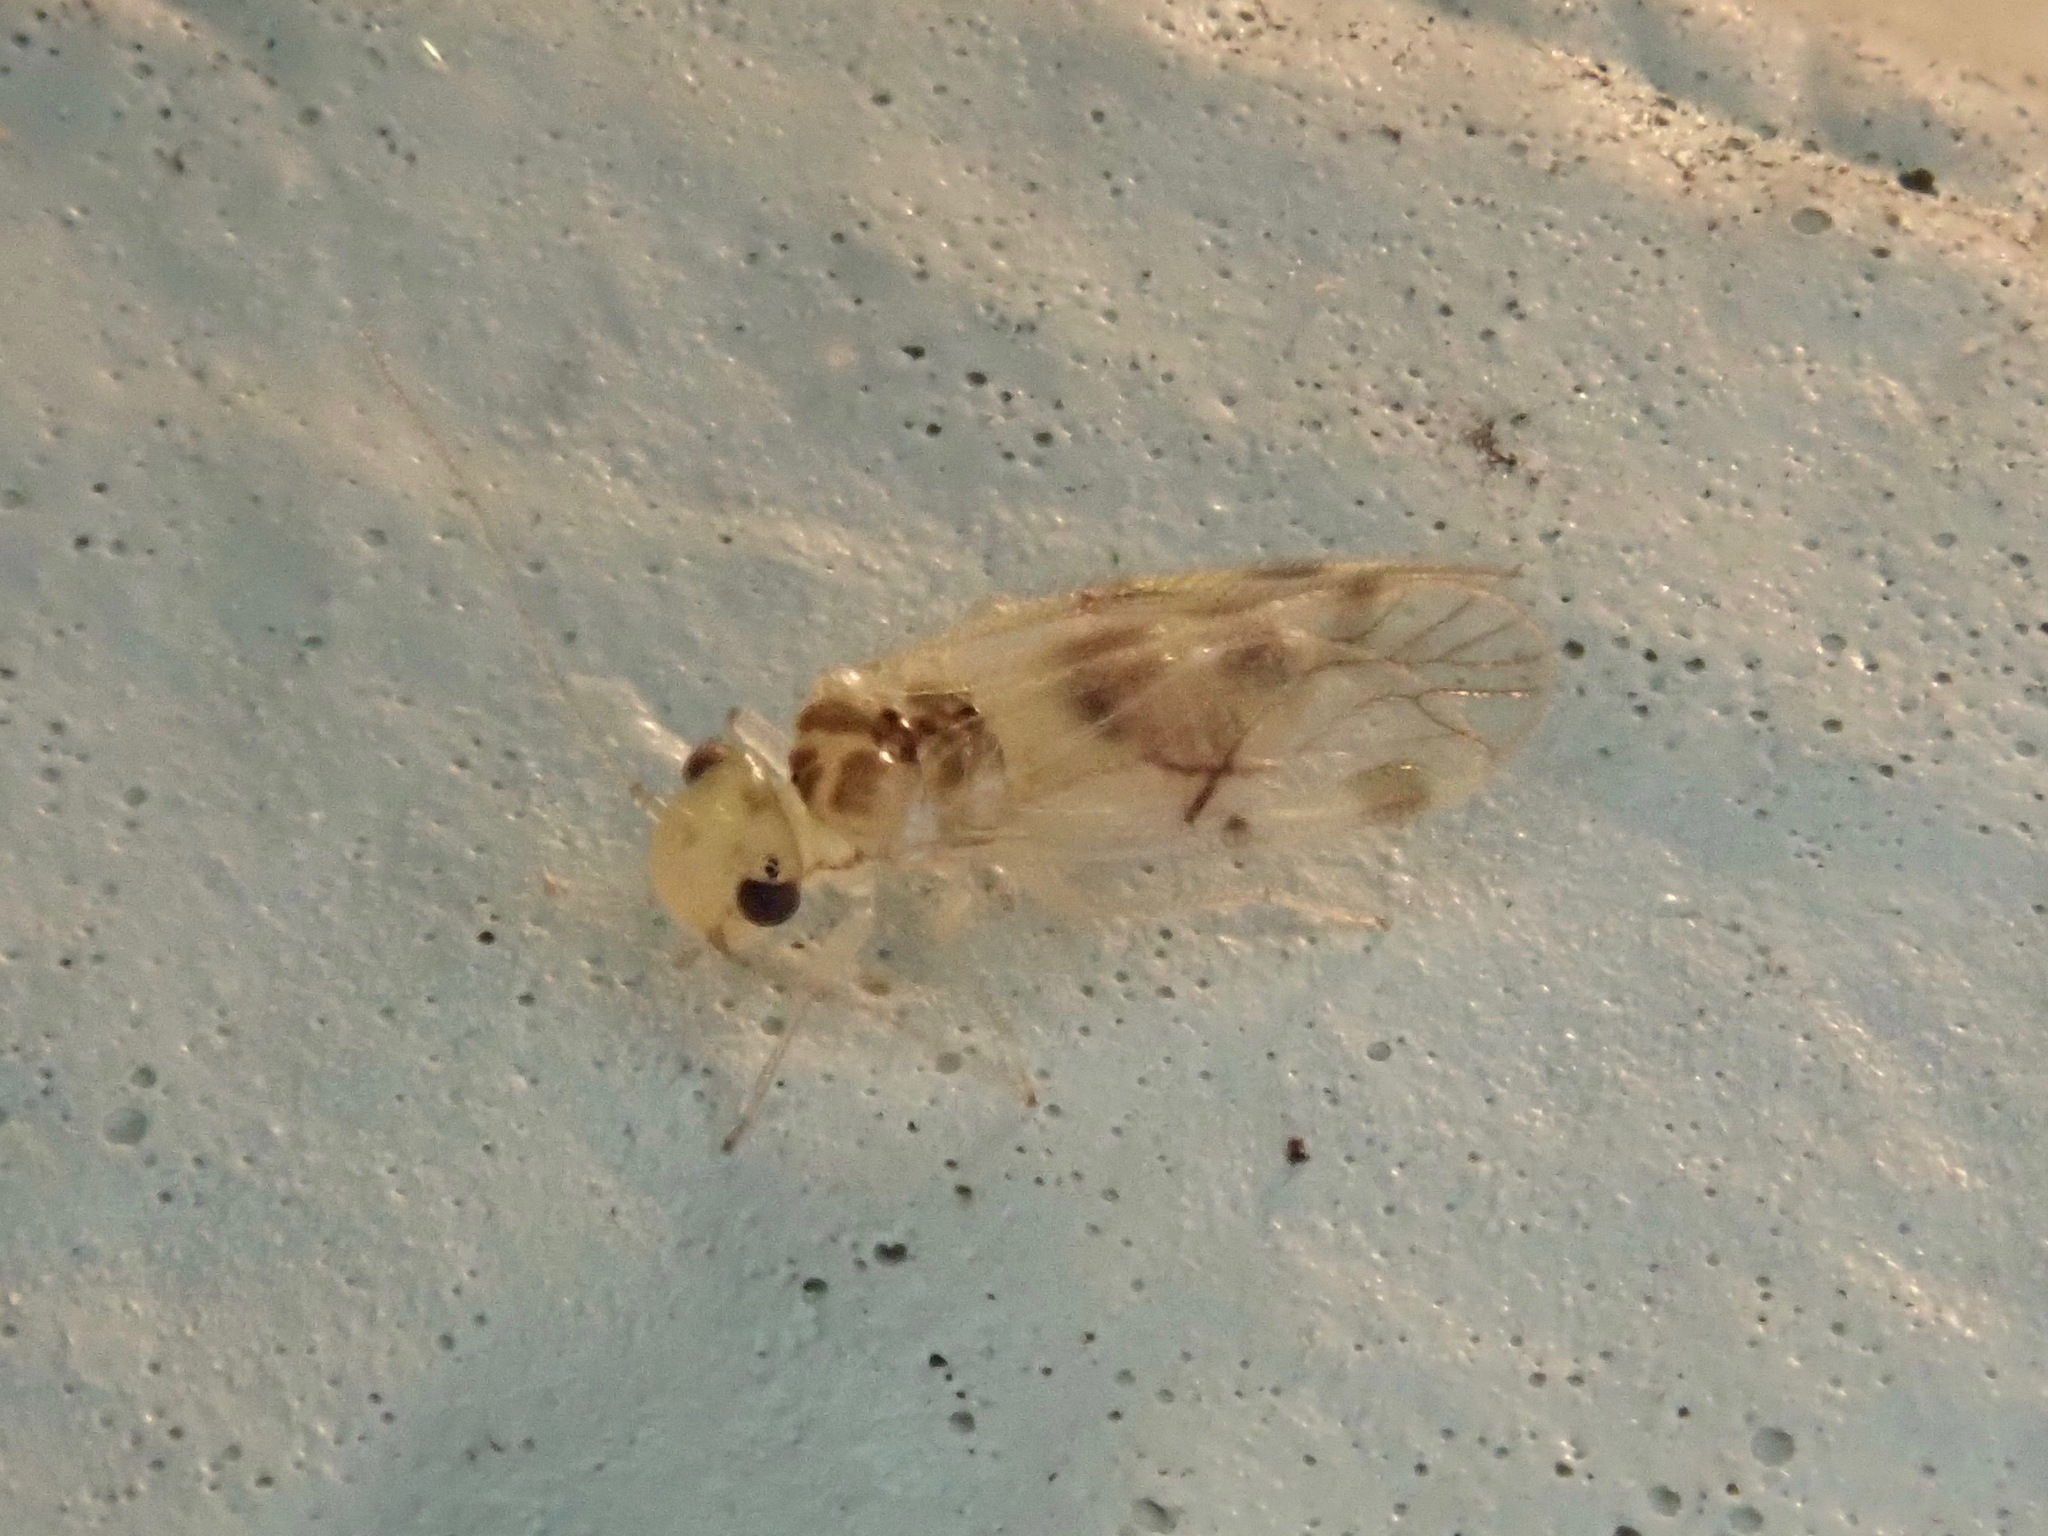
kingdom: Animalia
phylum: Arthropoda
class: Insecta
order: Psocodea
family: Pseudocaeciliidae
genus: Pseudocaecilius
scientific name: Pseudocaecilius citricola
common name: Bark lice
